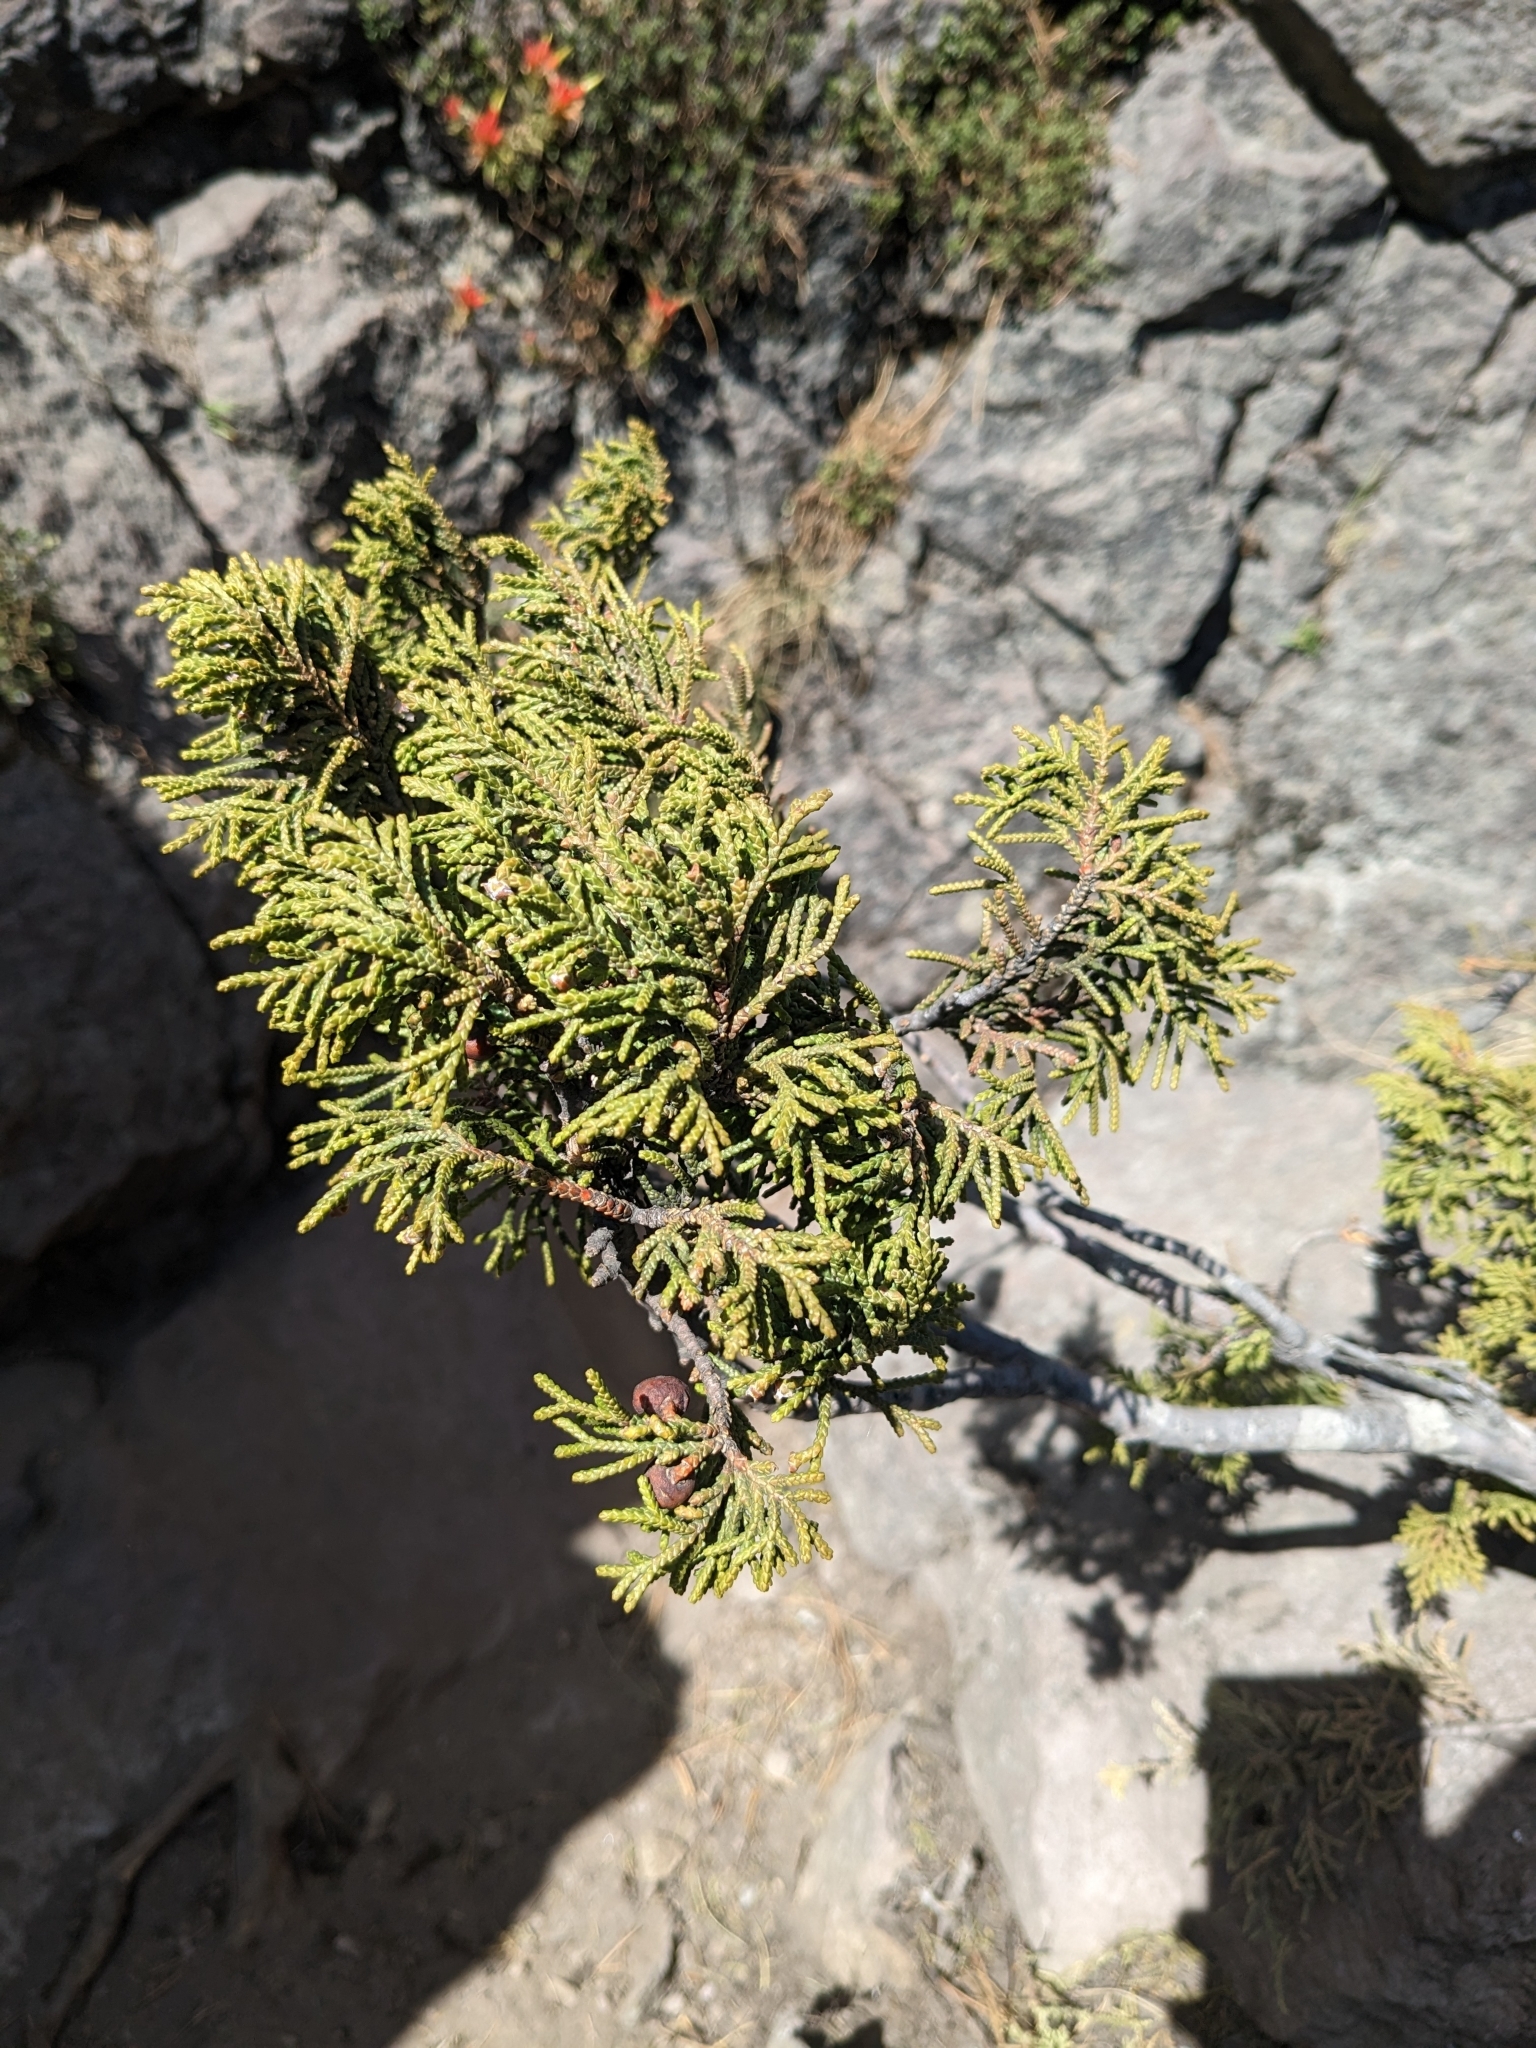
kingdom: Plantae
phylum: Tracheophyta
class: Pinopsida
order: Pinales
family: Cupressaceae
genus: Juniperus
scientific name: Juniperus monticola
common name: Mexican juniper
